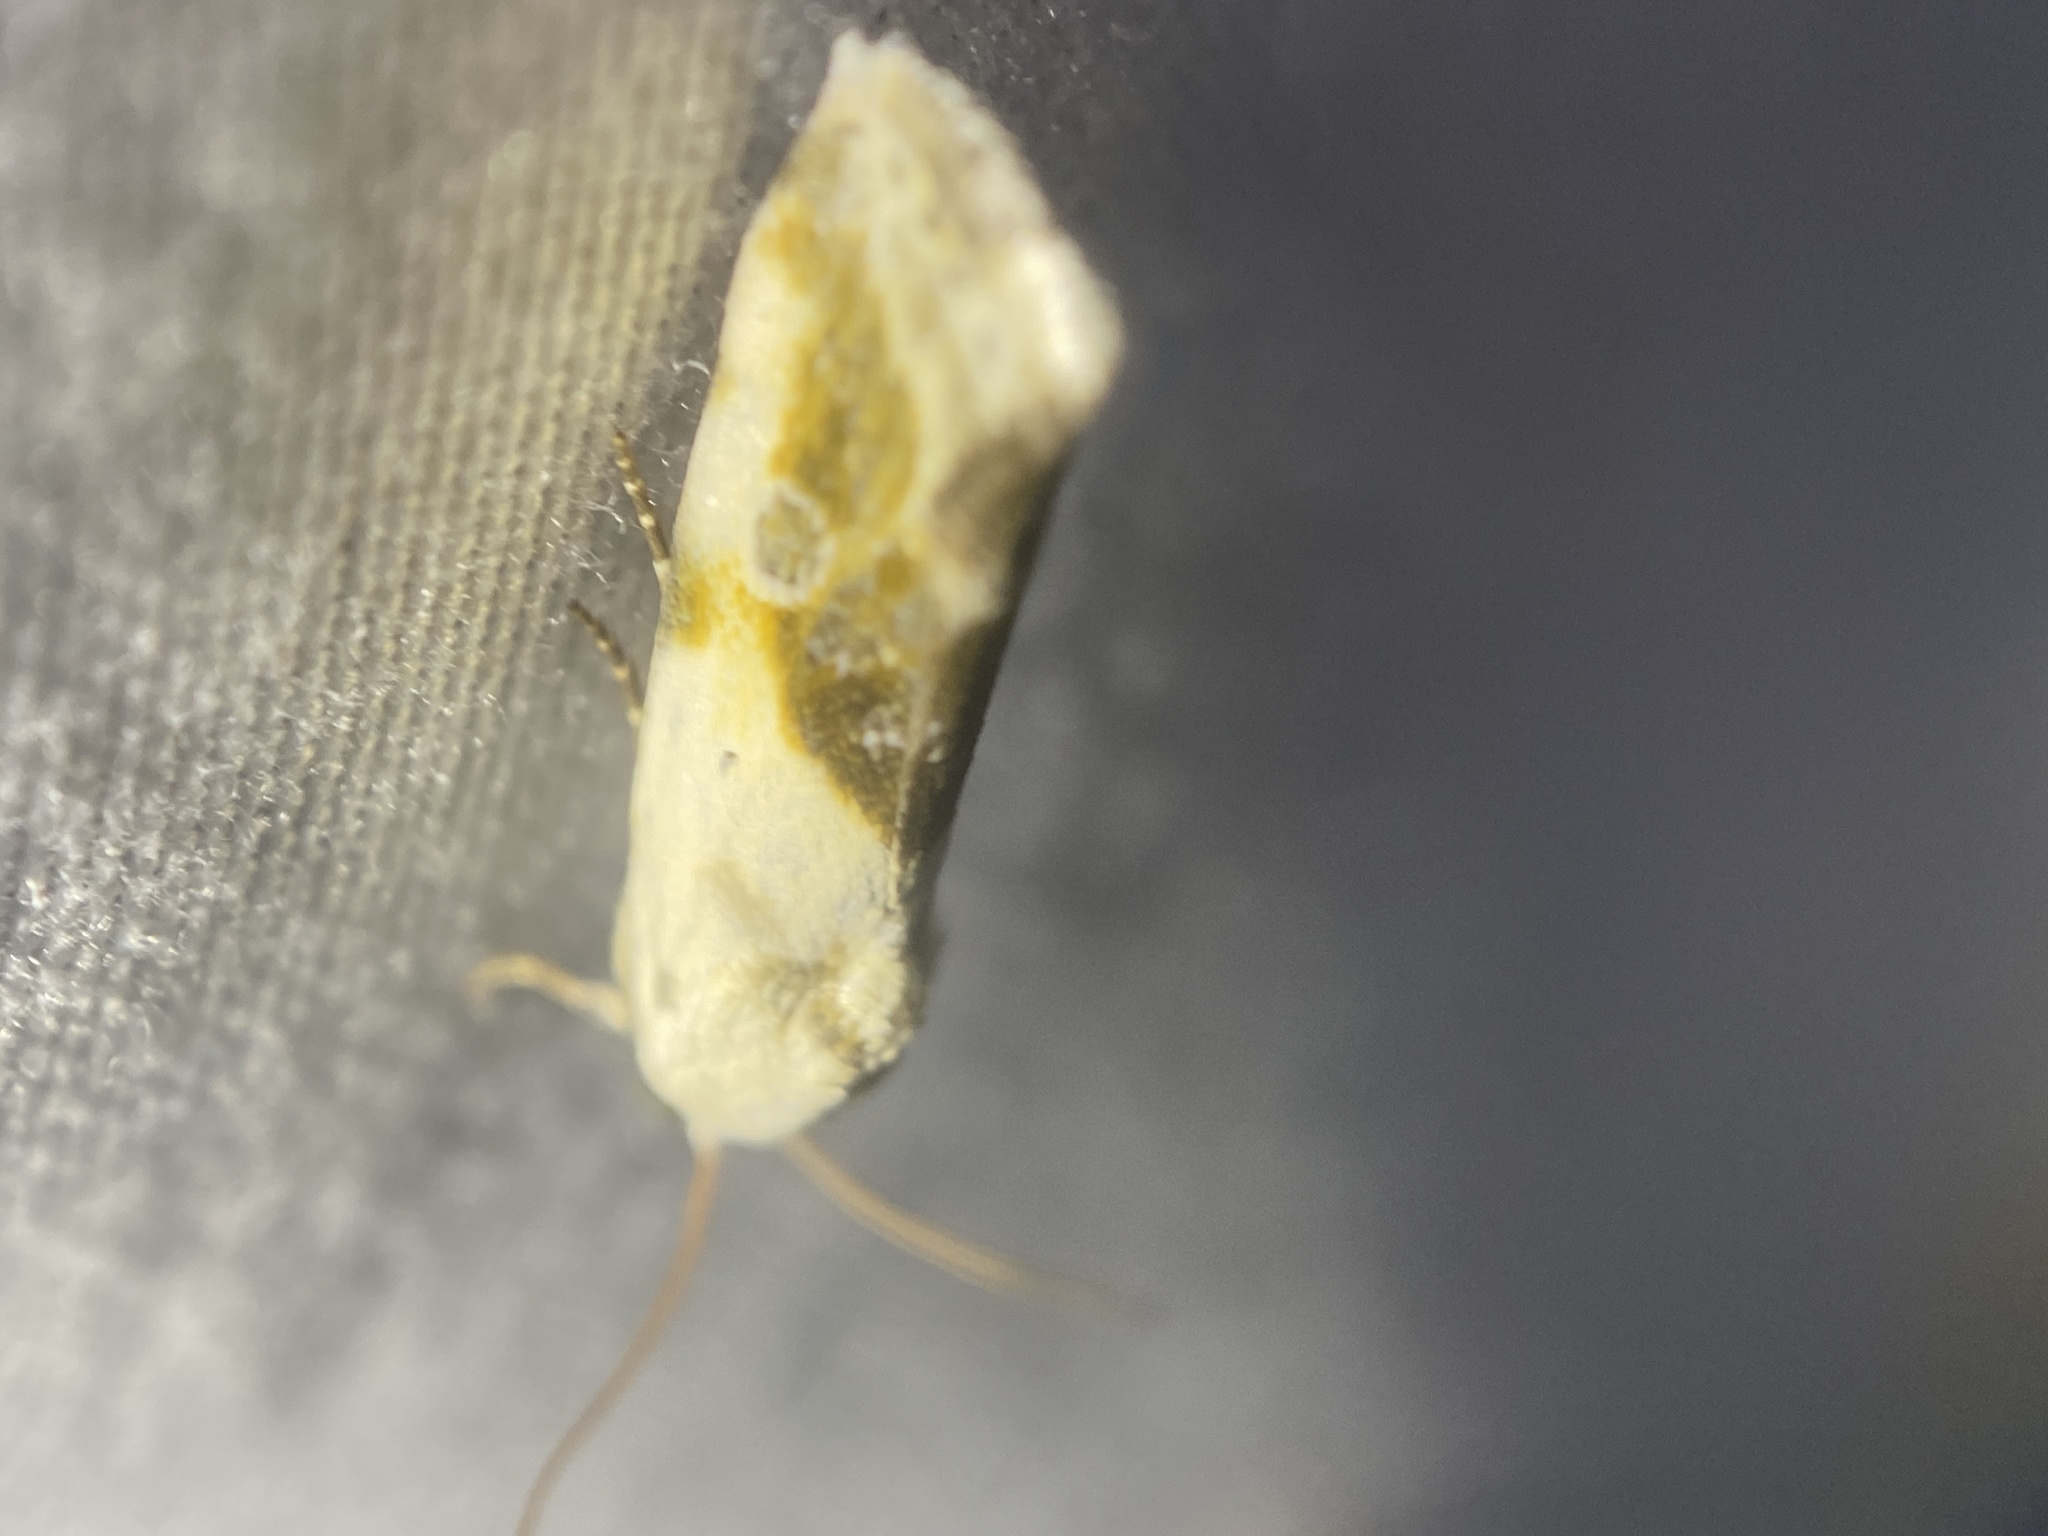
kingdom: Animalia
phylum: Arthropoda
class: Insecta
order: Lepidoptera
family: Noctuidae
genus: Acontia
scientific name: Acontia candefacta
